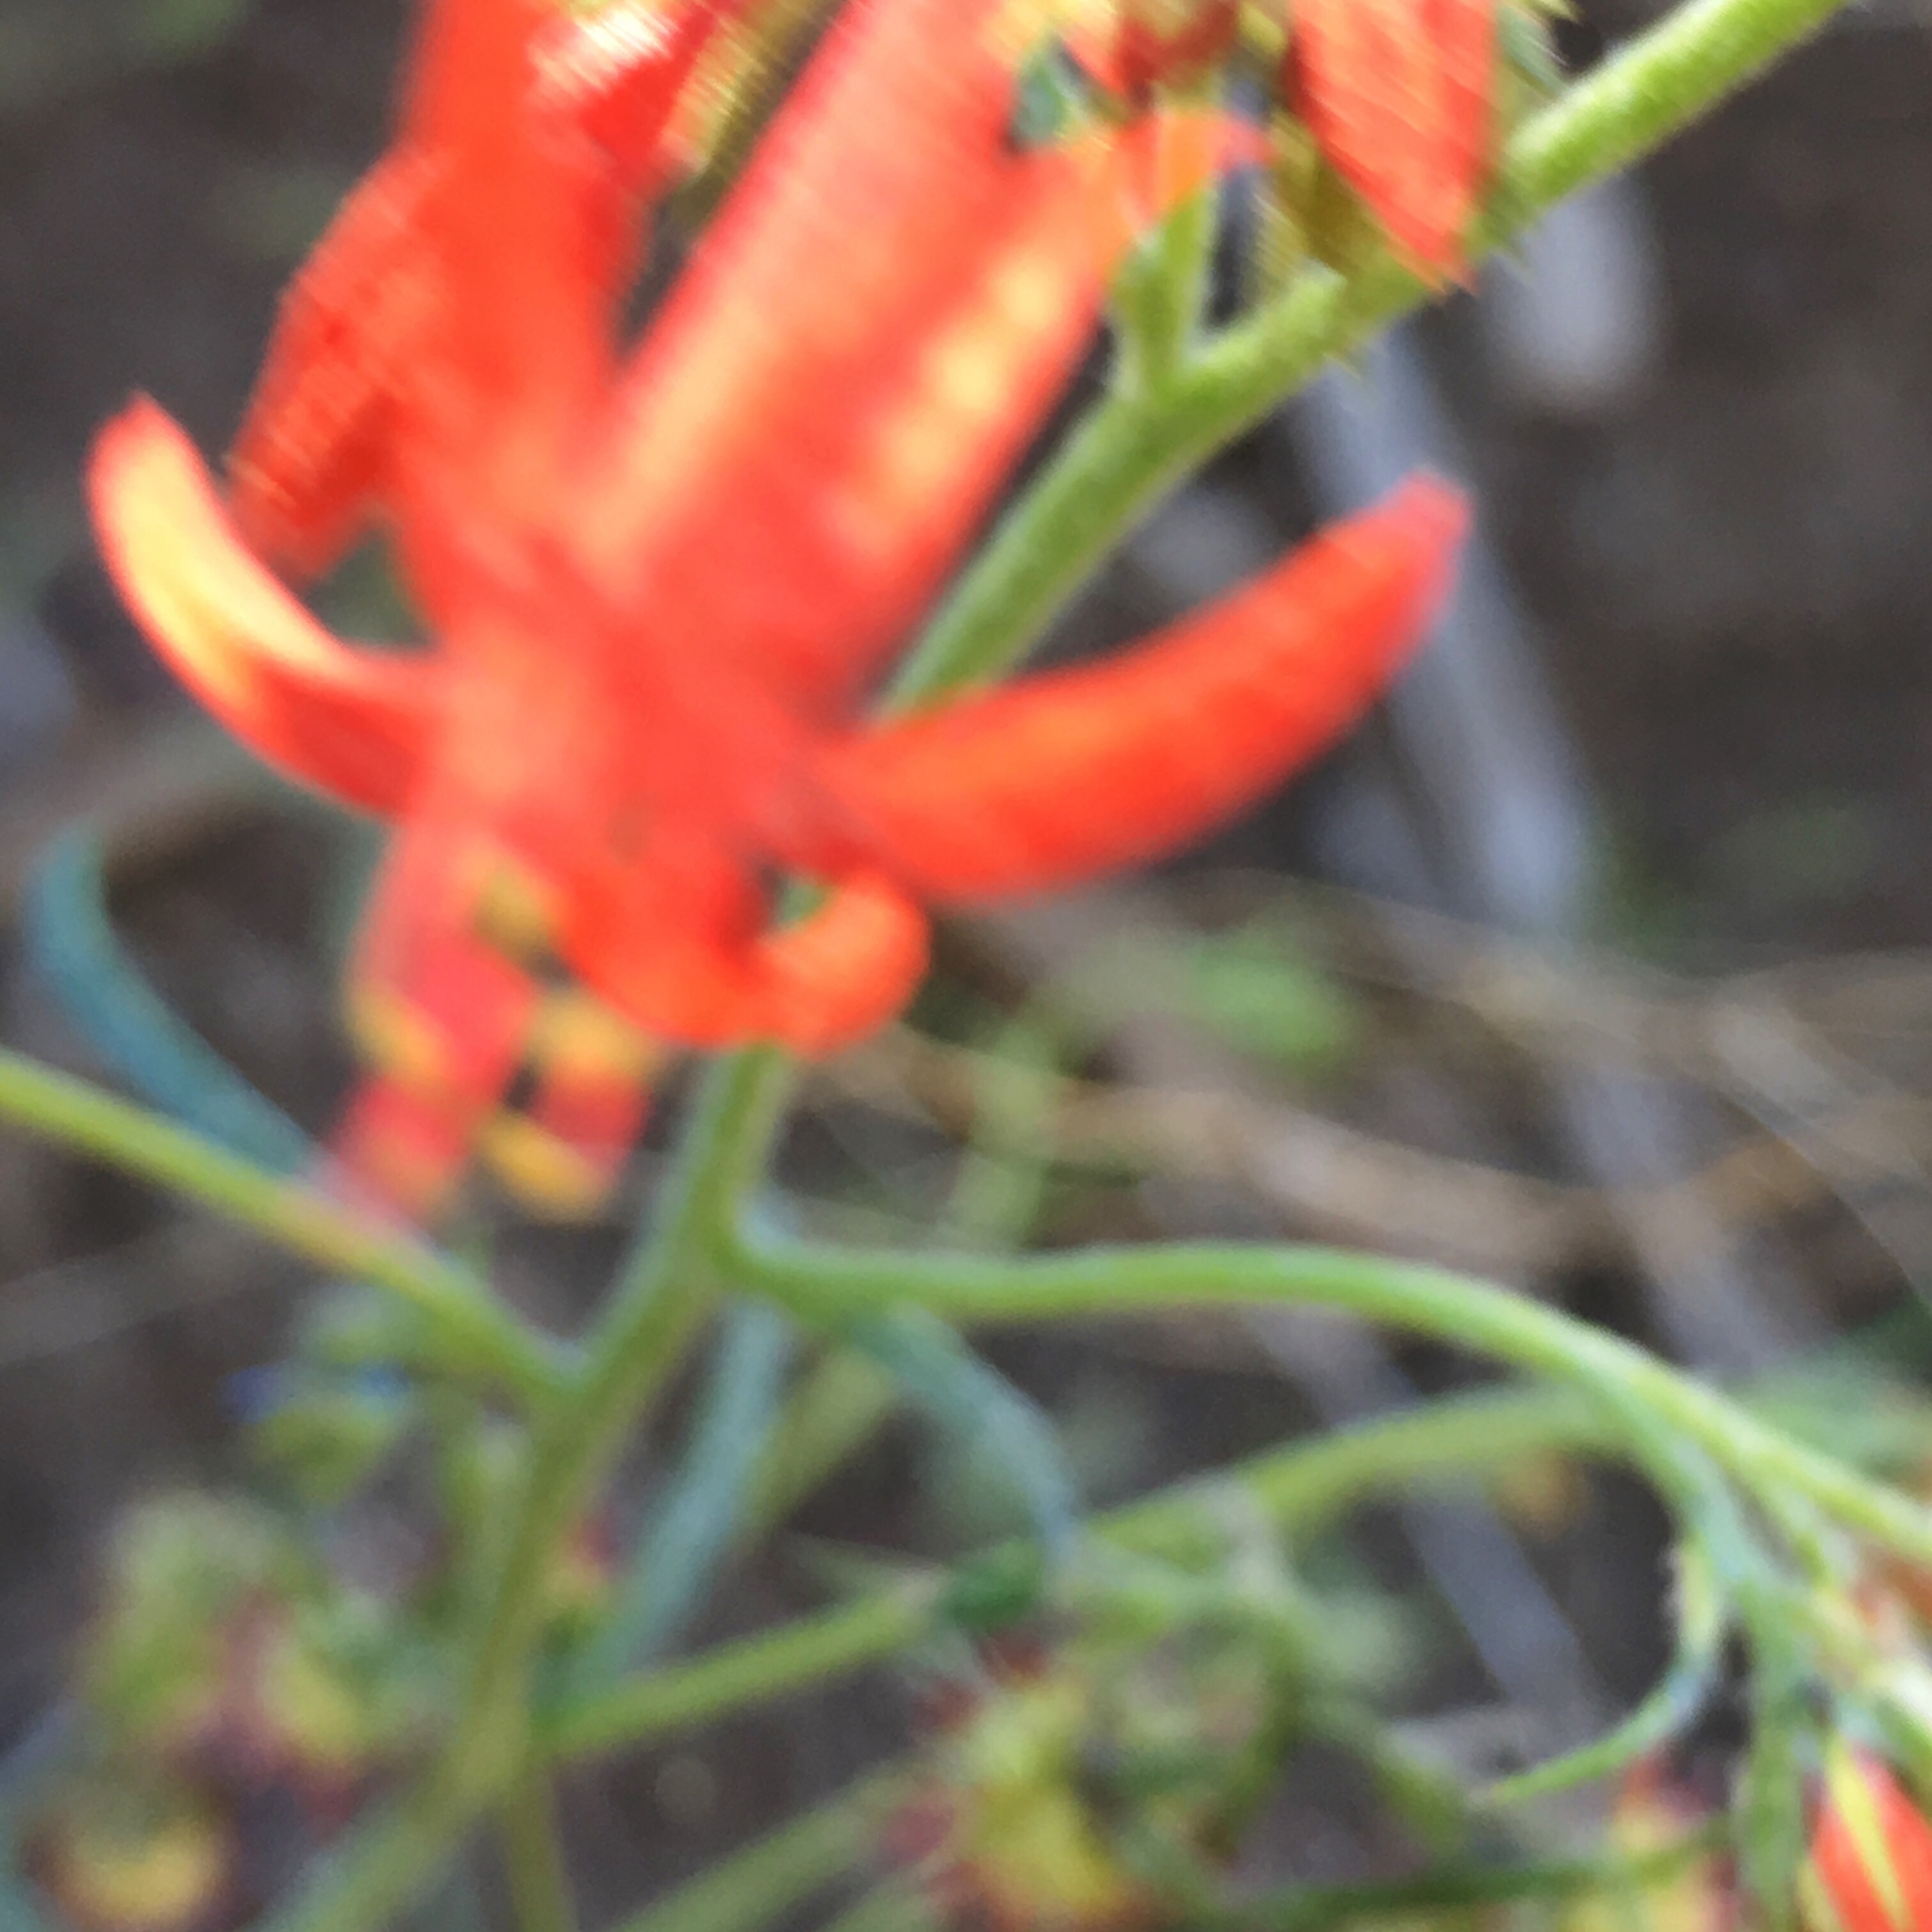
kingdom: Plantae
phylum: Tracheophyta
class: Magnoliopsida
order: Ericales
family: Polemoniaceae
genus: Ipomopsis
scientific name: Ipomopsis aggregata
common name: Scarlet gilia
